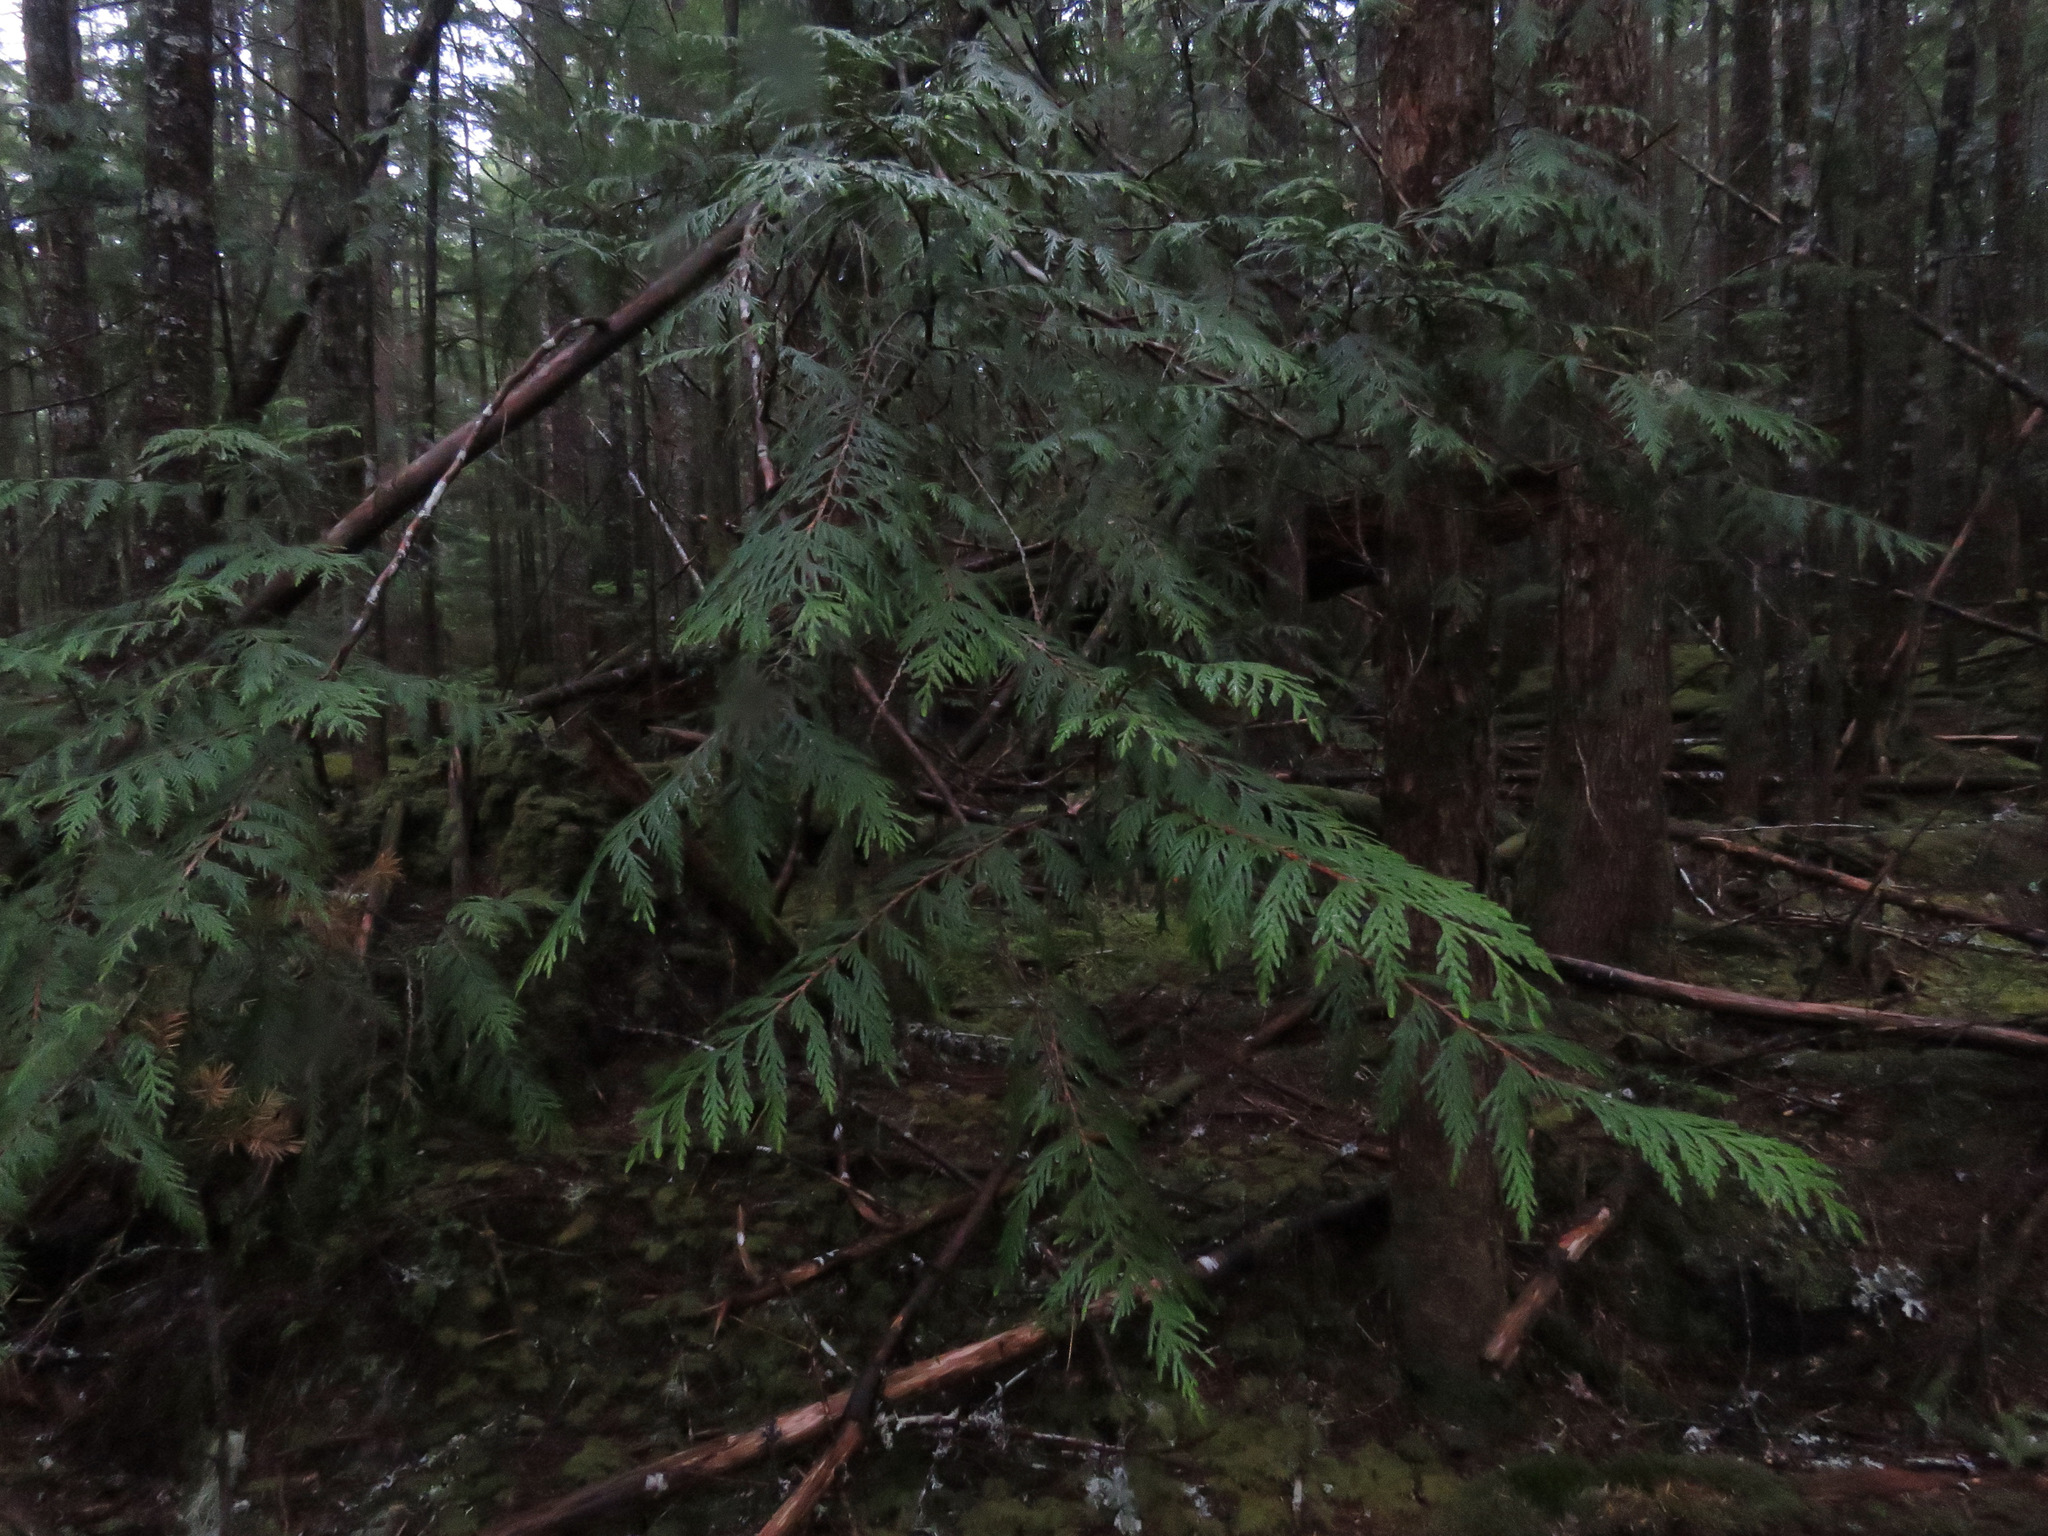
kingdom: Plantae
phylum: Tracheophyta
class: Pinopsida
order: Pinales
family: Cupressaceae
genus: Thuja
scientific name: Thuja plicata
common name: Western red-cedar
